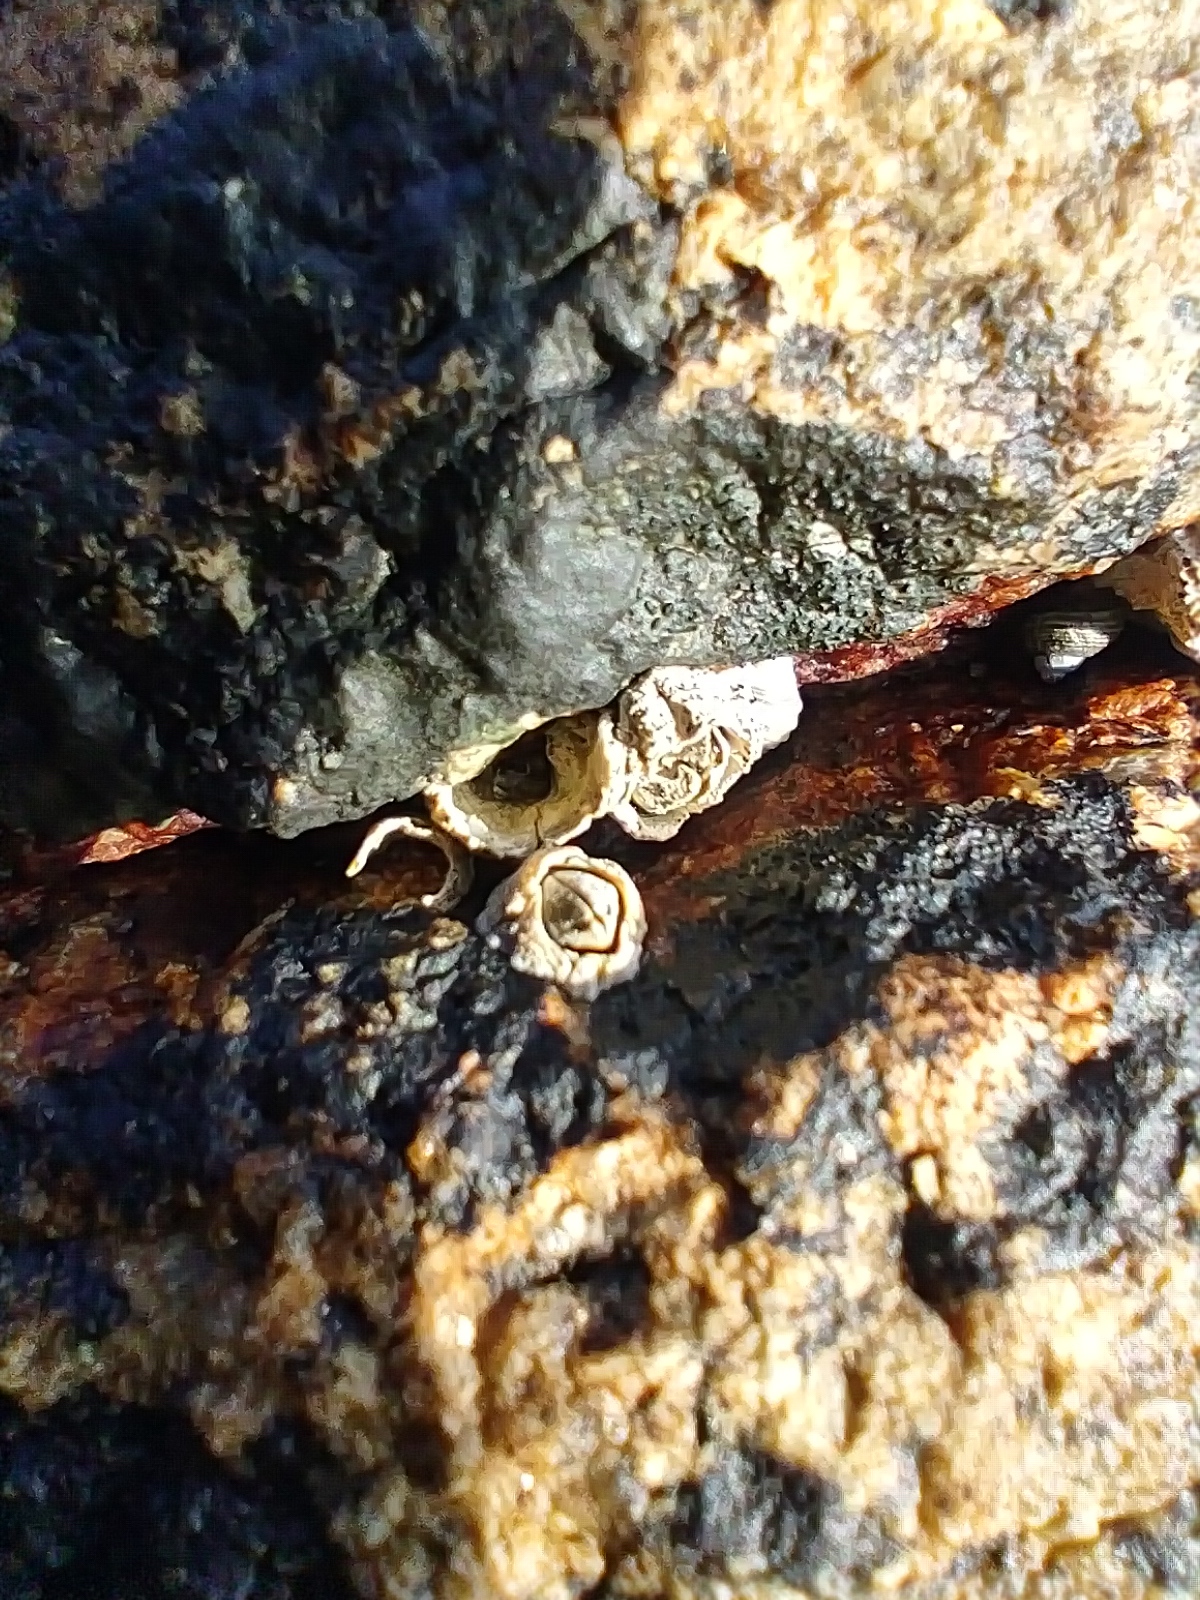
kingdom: Animalia
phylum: Arthropoda
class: Maxillopoda
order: Sessilia
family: Archaeobalanidae
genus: Semibalanus
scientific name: Semibalanus balanoides
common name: Acorn barnacle
